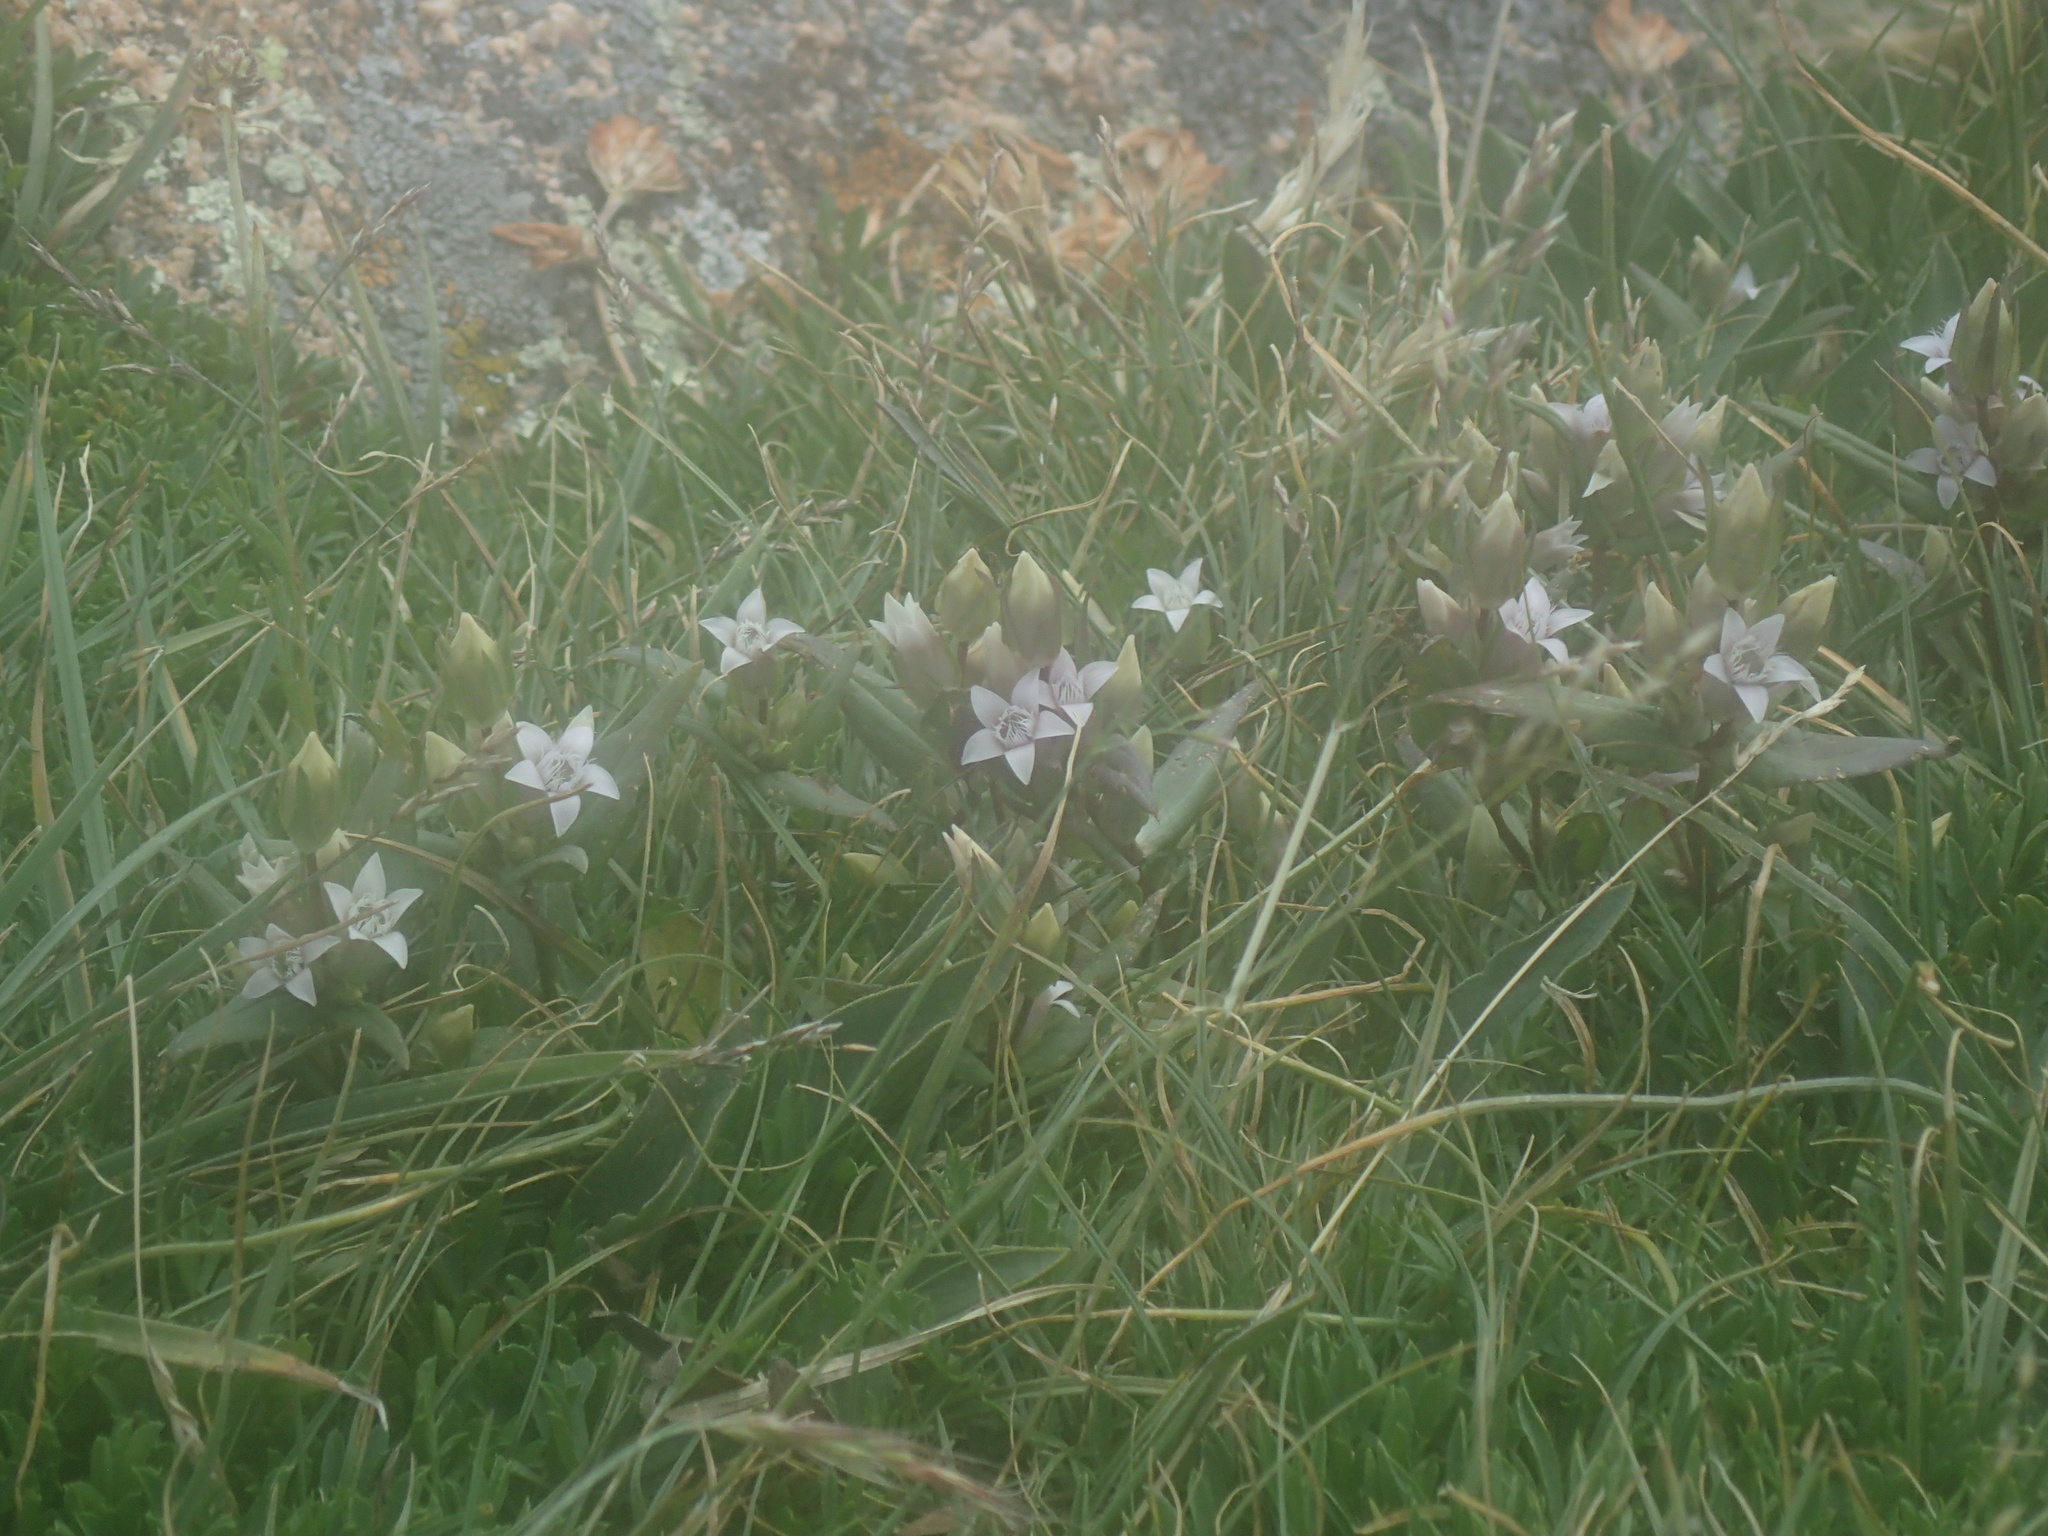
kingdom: Plantae
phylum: Tracheophyta
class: Magnoliopsida
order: Gentianales
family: Gentianaceae
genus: Gentianella
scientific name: Gentianella amarella
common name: Autumn gentian
